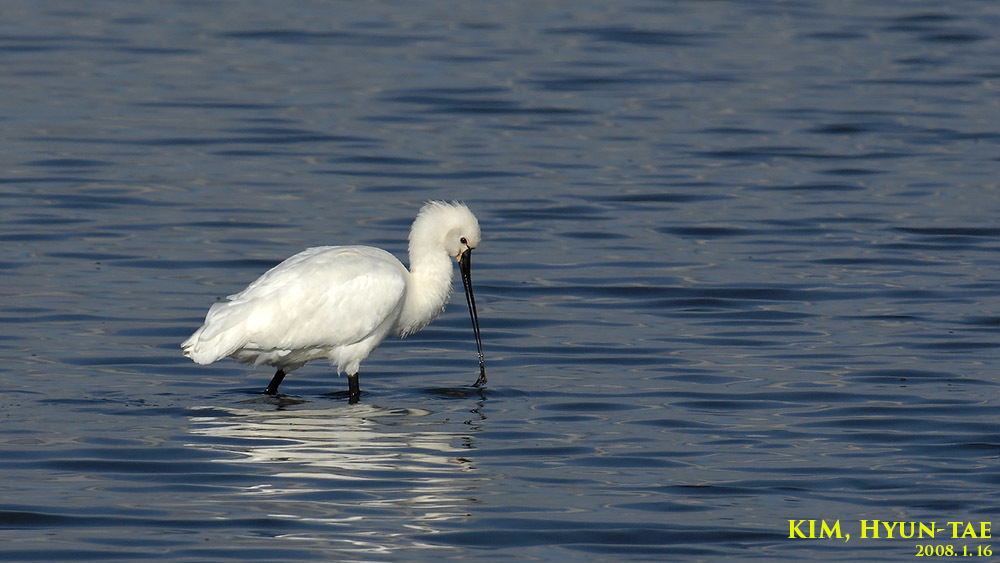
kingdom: Animalia
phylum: Chordata
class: Aves
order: Pelecaniformes
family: Threskiornithidae
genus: Platalea
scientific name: Platalea leucorodia
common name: Eurasian spoonbill
